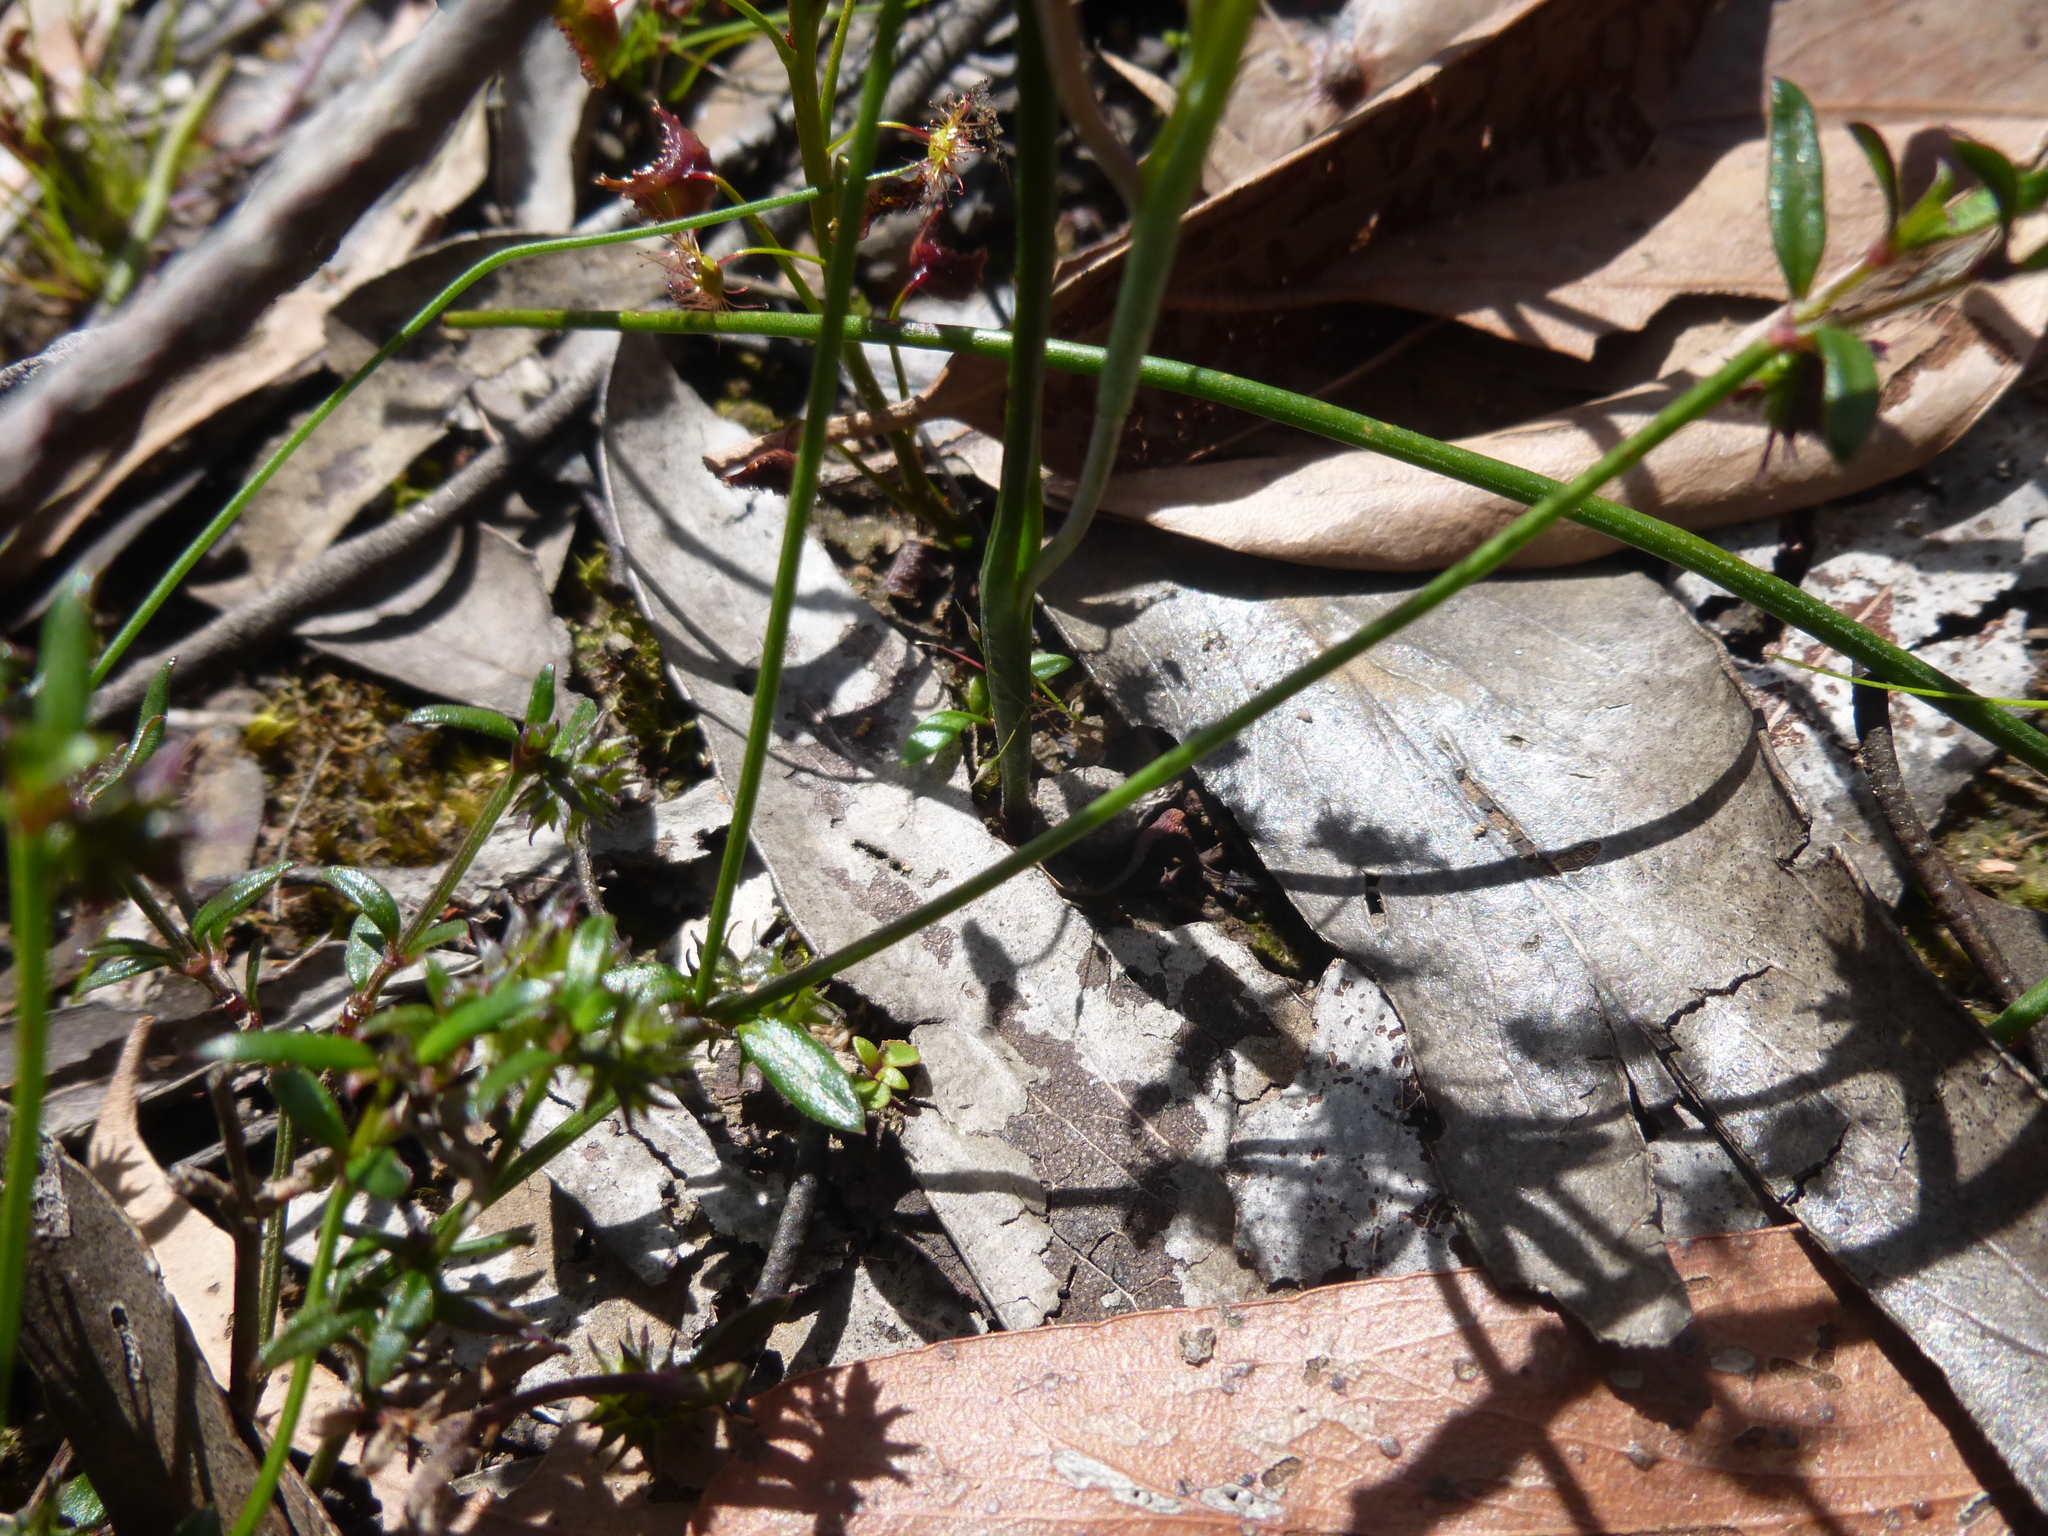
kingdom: Plantae
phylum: Tracheophyta
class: Liliopsida
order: Asparagales
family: Orchidaceae
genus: Thelymitra
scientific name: Thelymitra antennifera
